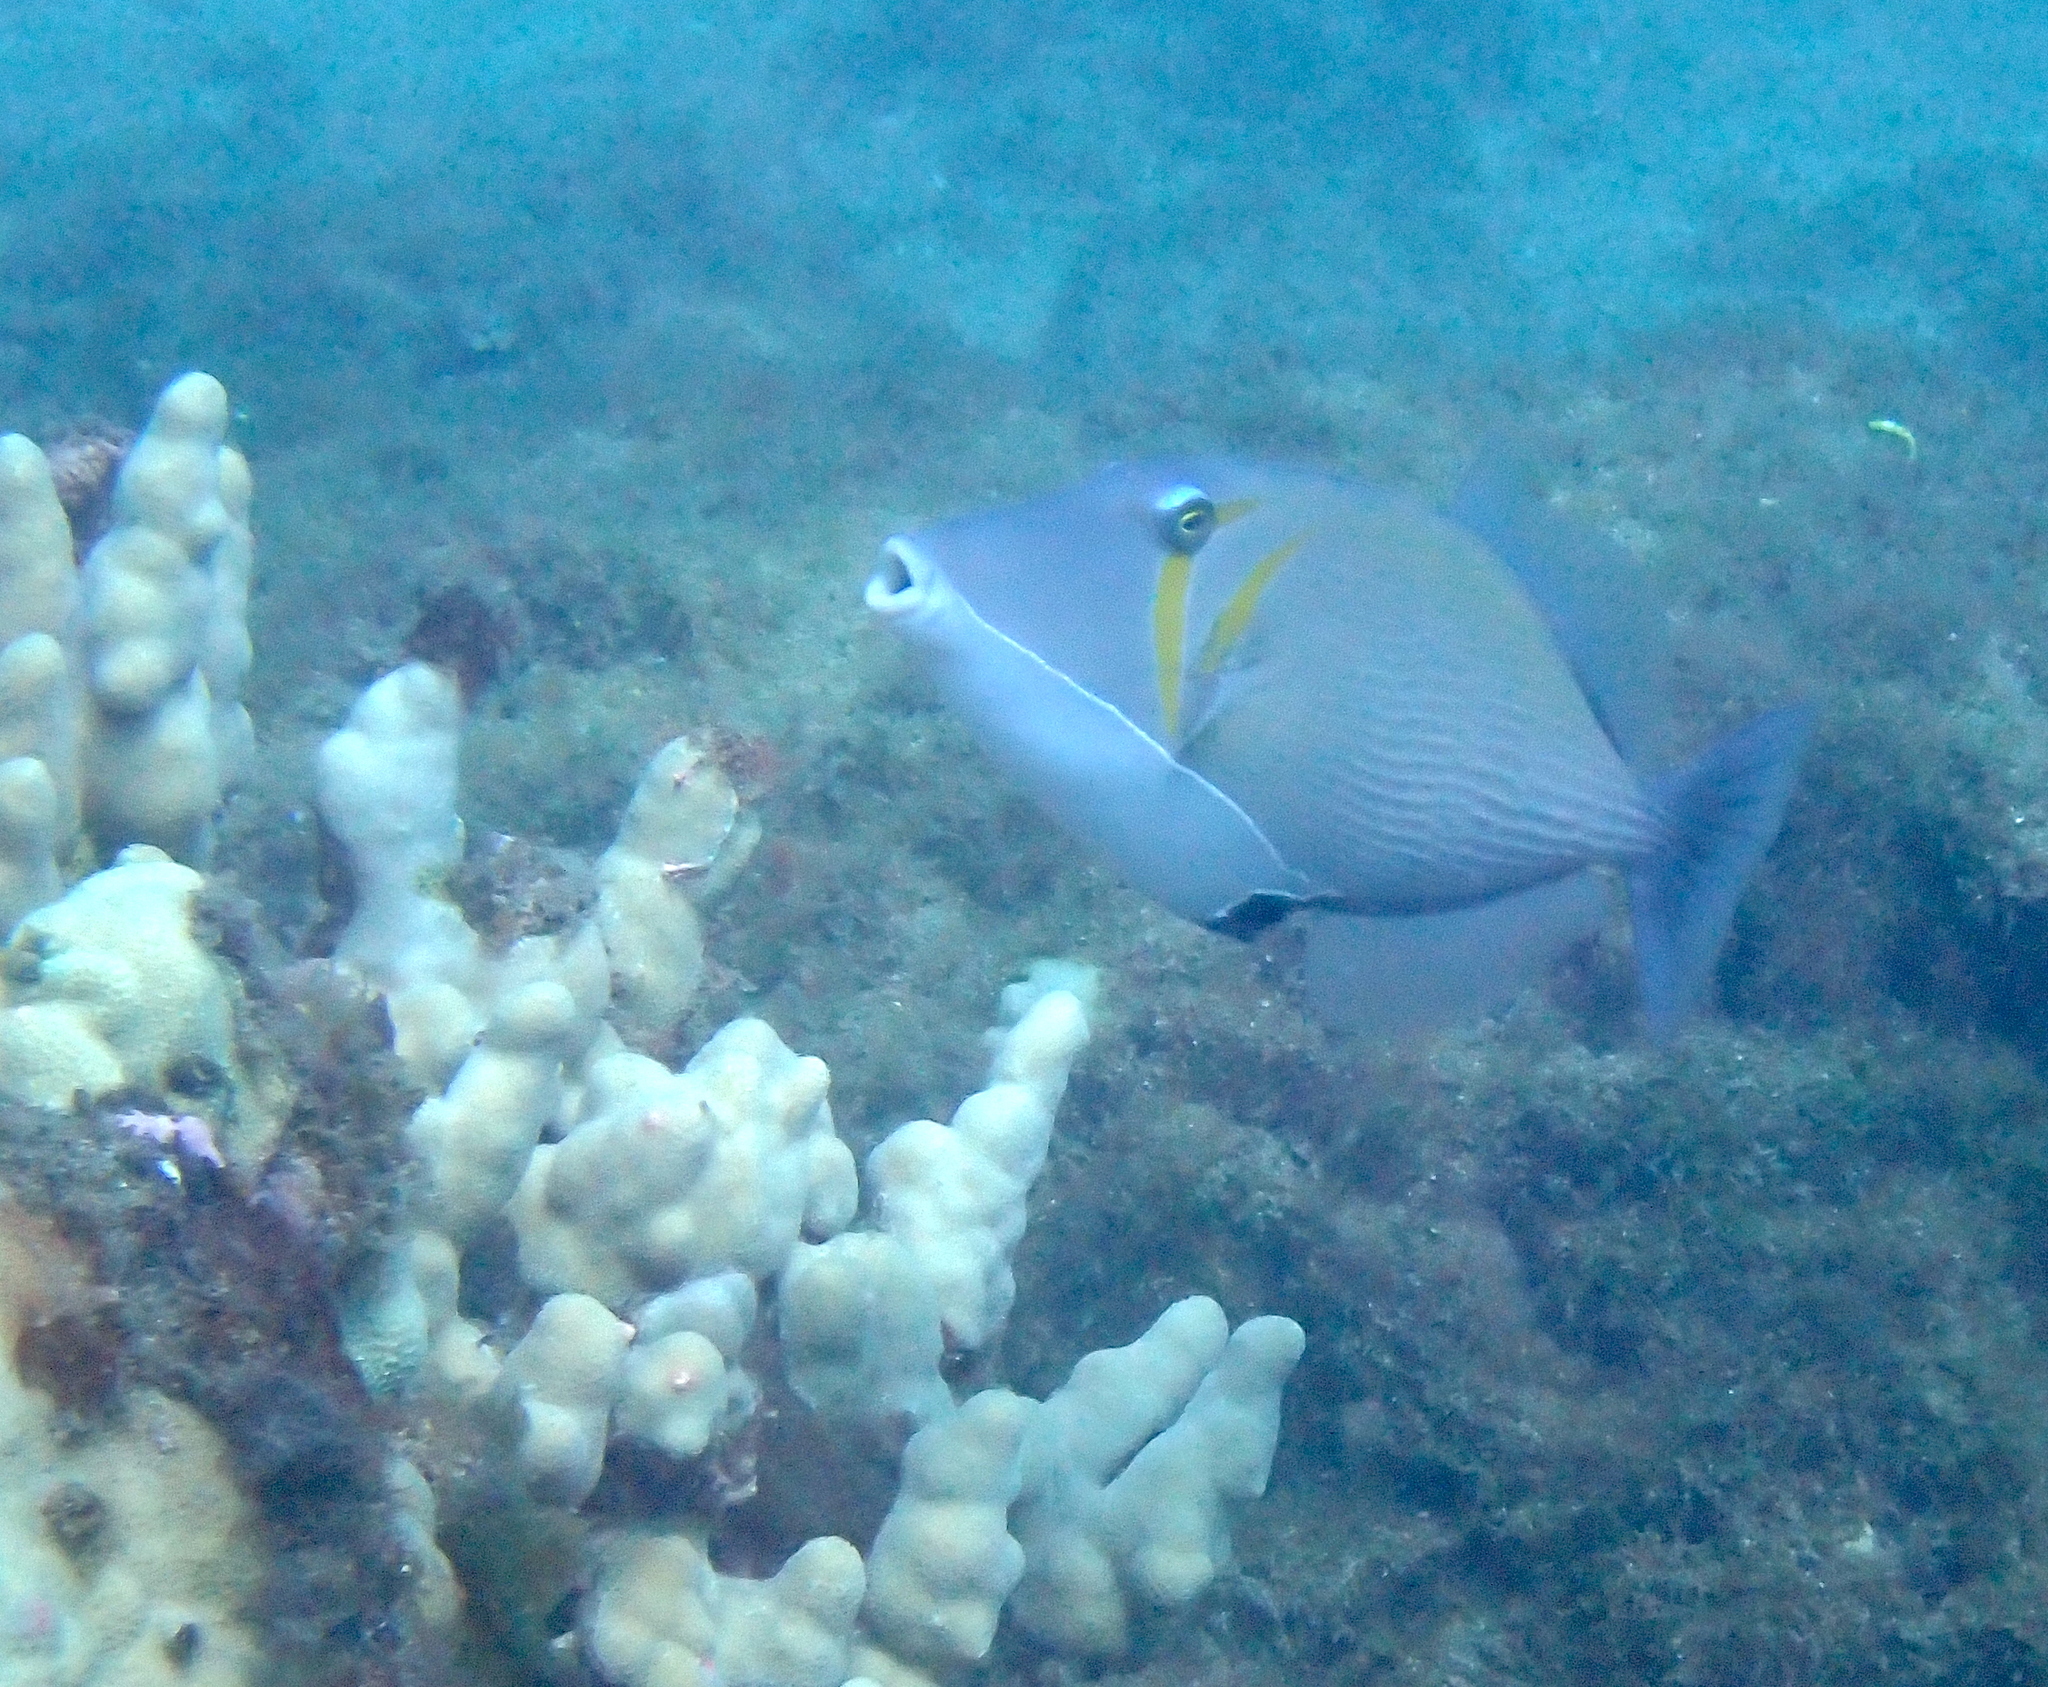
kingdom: Animalia
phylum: Chordata
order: Tetraodontiformes
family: Balistidae
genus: Sufflamen
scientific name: Sufflamen bursa
